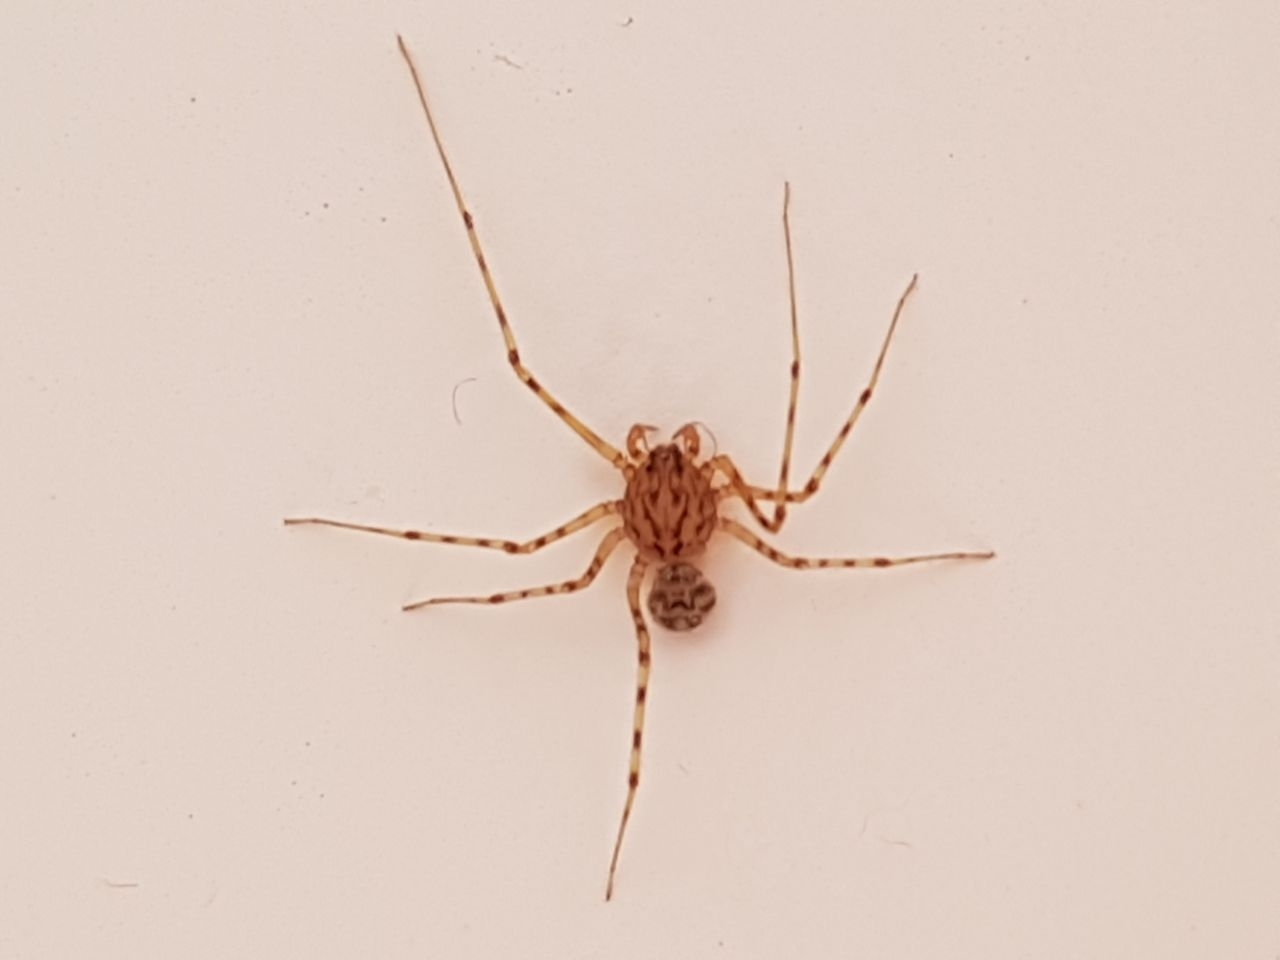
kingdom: Animalia
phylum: Arthropoda
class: Arachnida
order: Araneae
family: Scytodidae
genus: Scytodes
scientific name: Scytodes thoracica
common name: Spitting spider
